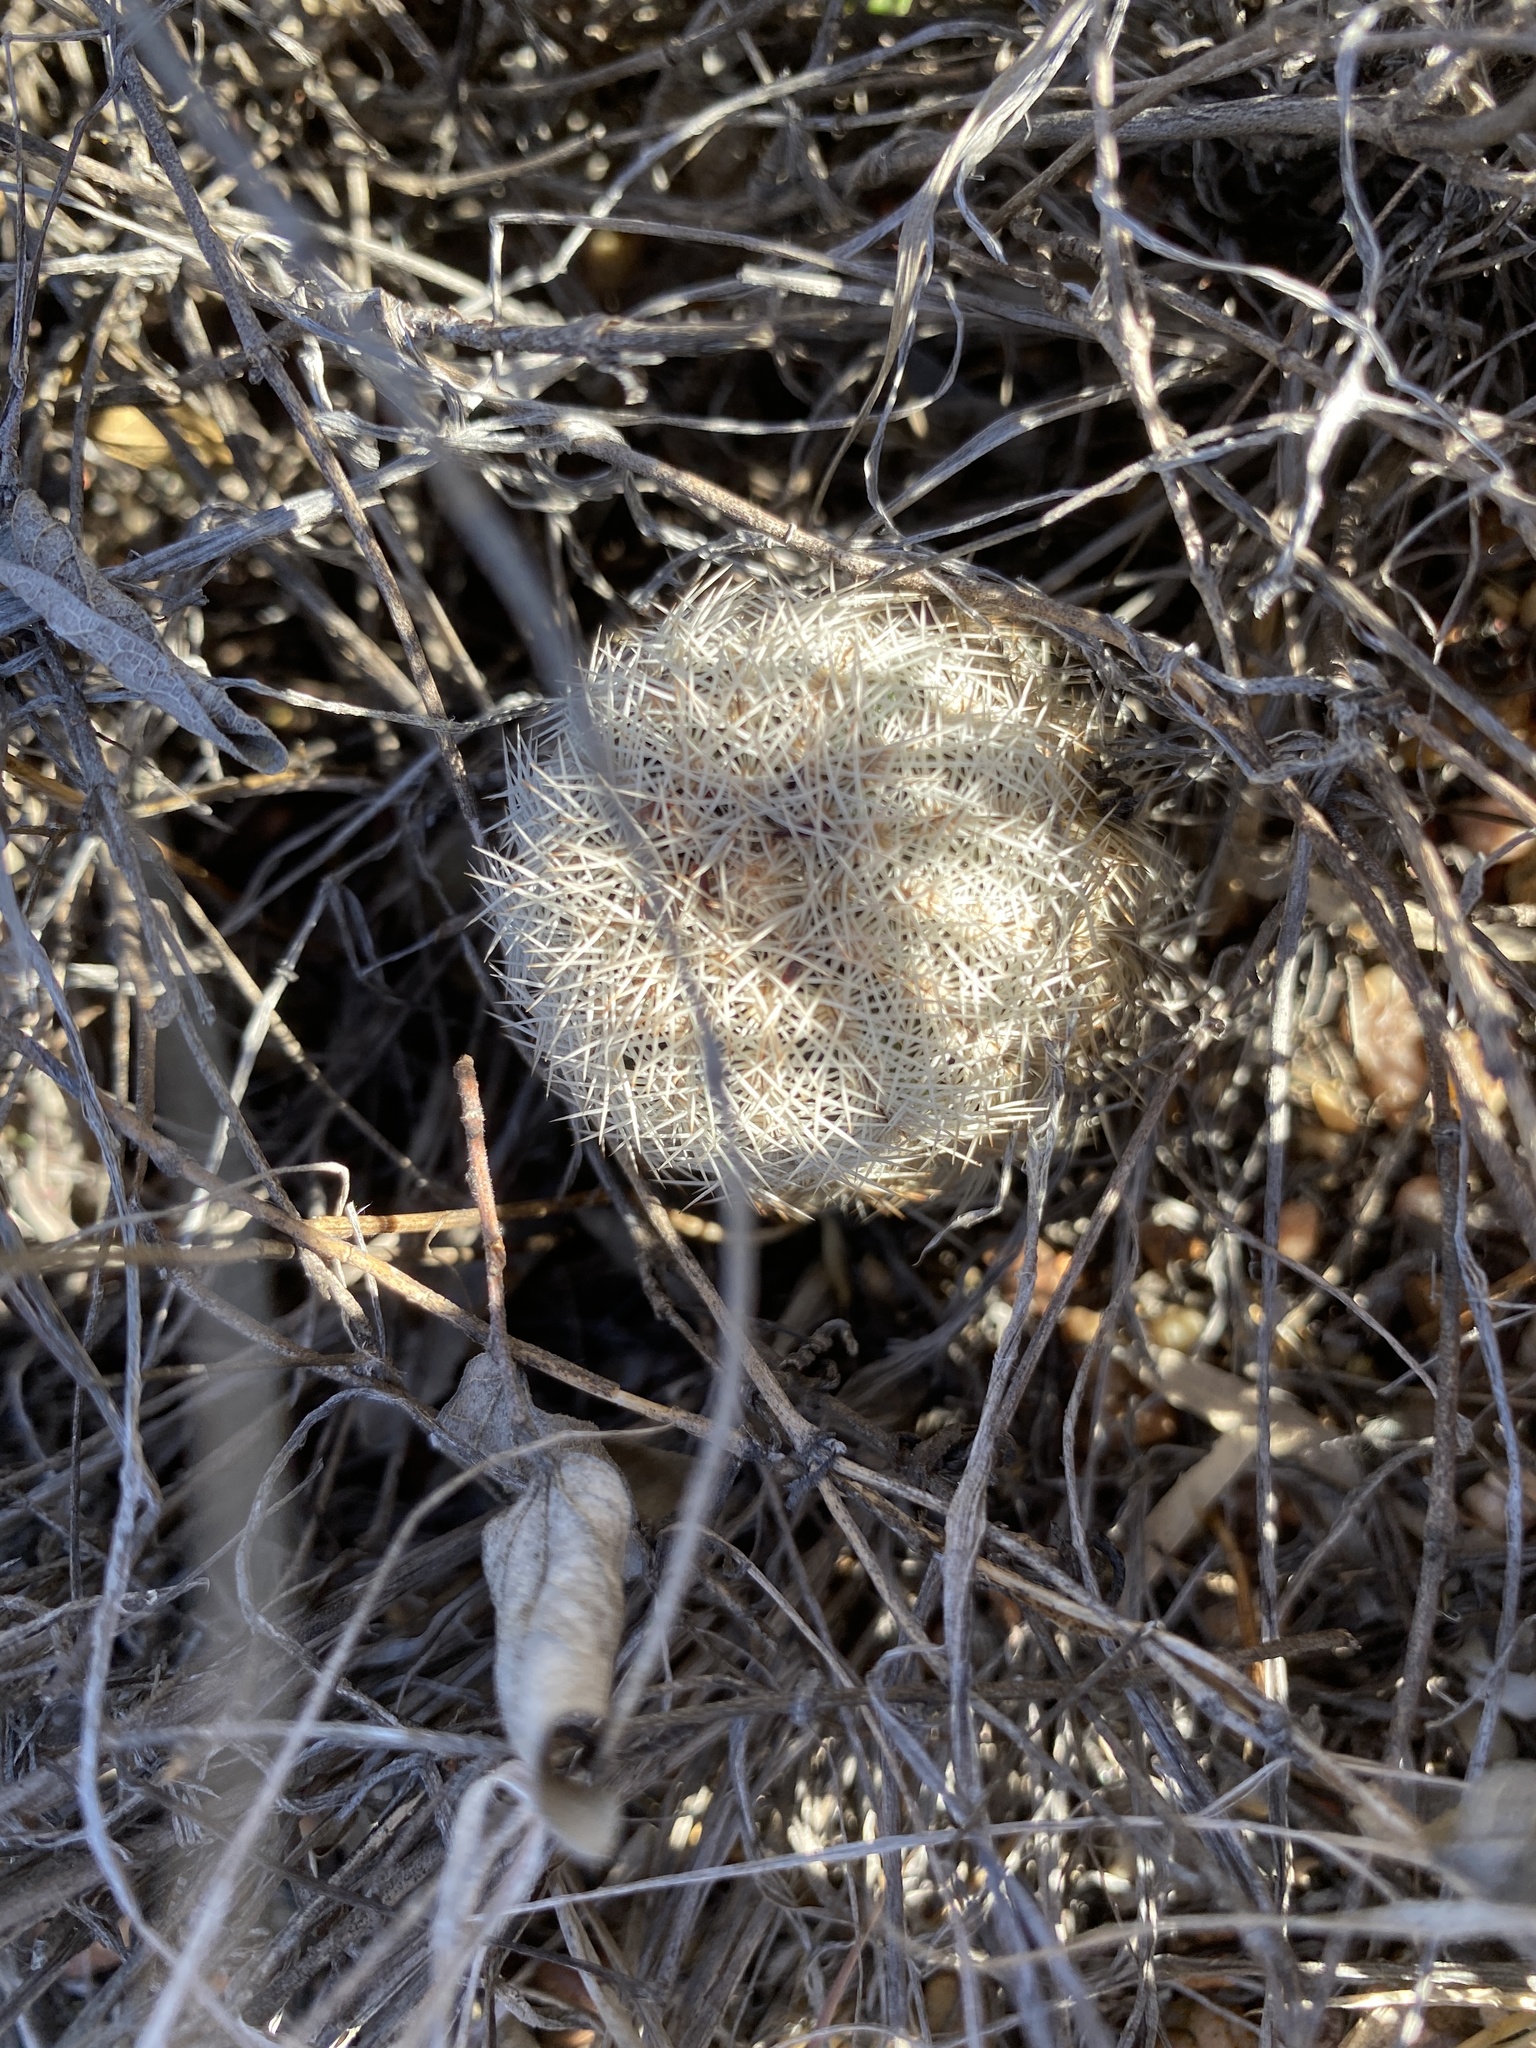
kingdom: Plantae
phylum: Tracheophyta
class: Magnoliopsida
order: Caryophyllales
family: Cactaceae
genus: Echinocereus
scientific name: Echinocereus reichenbachii
